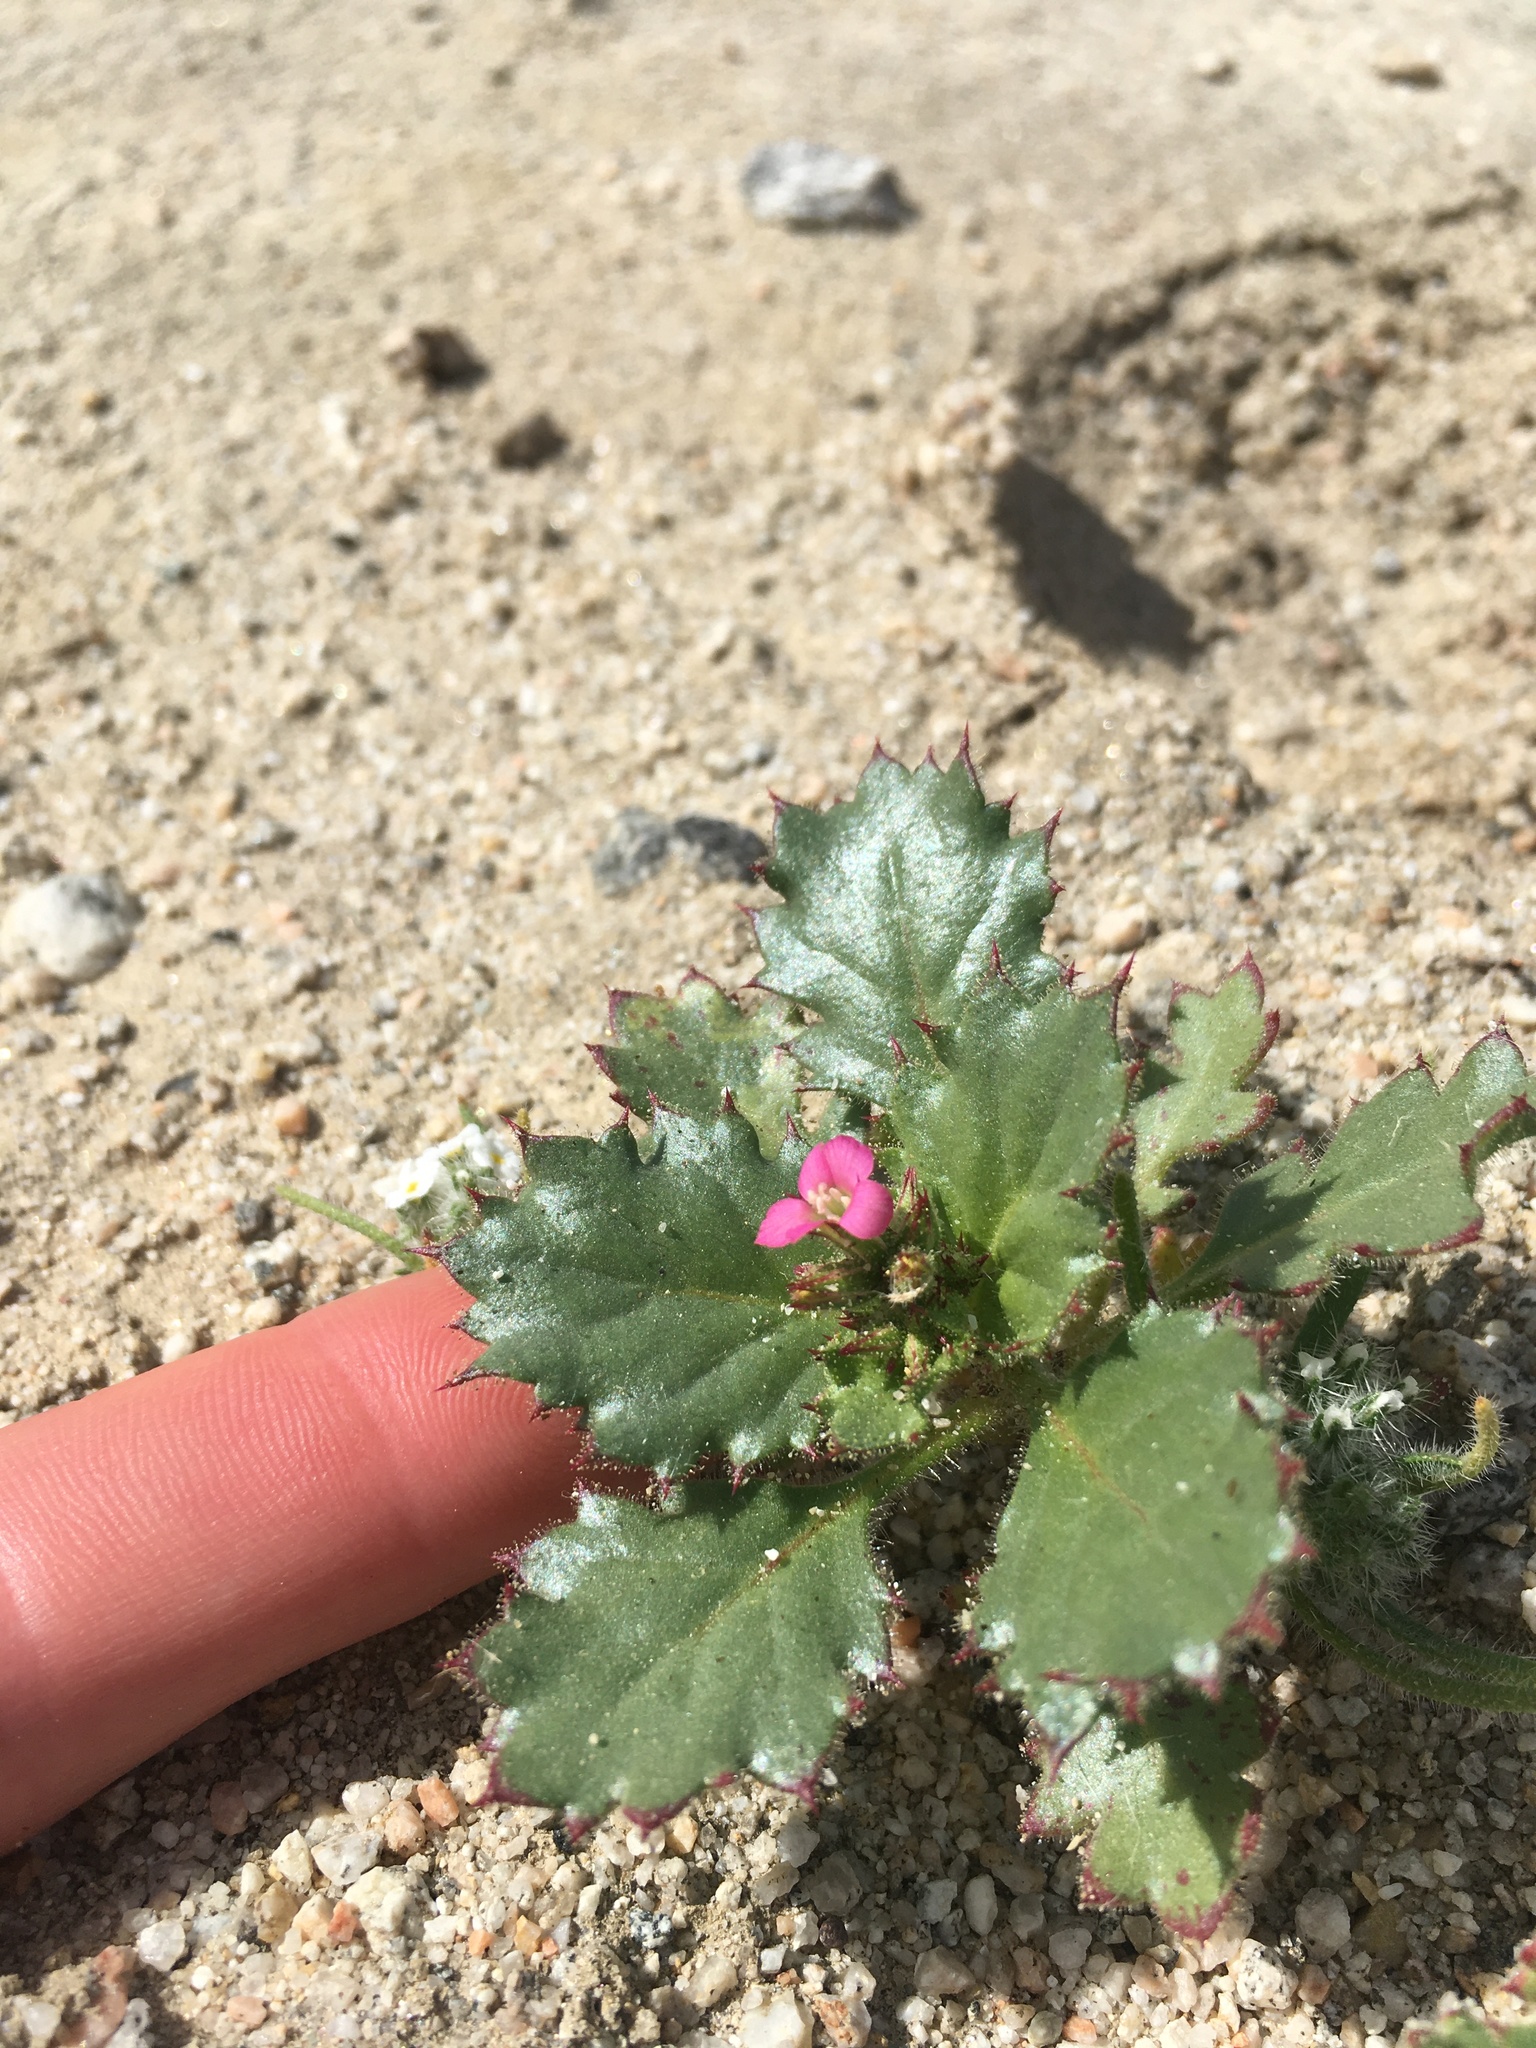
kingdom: Plantae
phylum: Tracheophyta
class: Magnoliopsida
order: Ericales
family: Polemoniaceae
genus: Aliciella
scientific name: Aliciella latifolia
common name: Broad-leaf gilia
